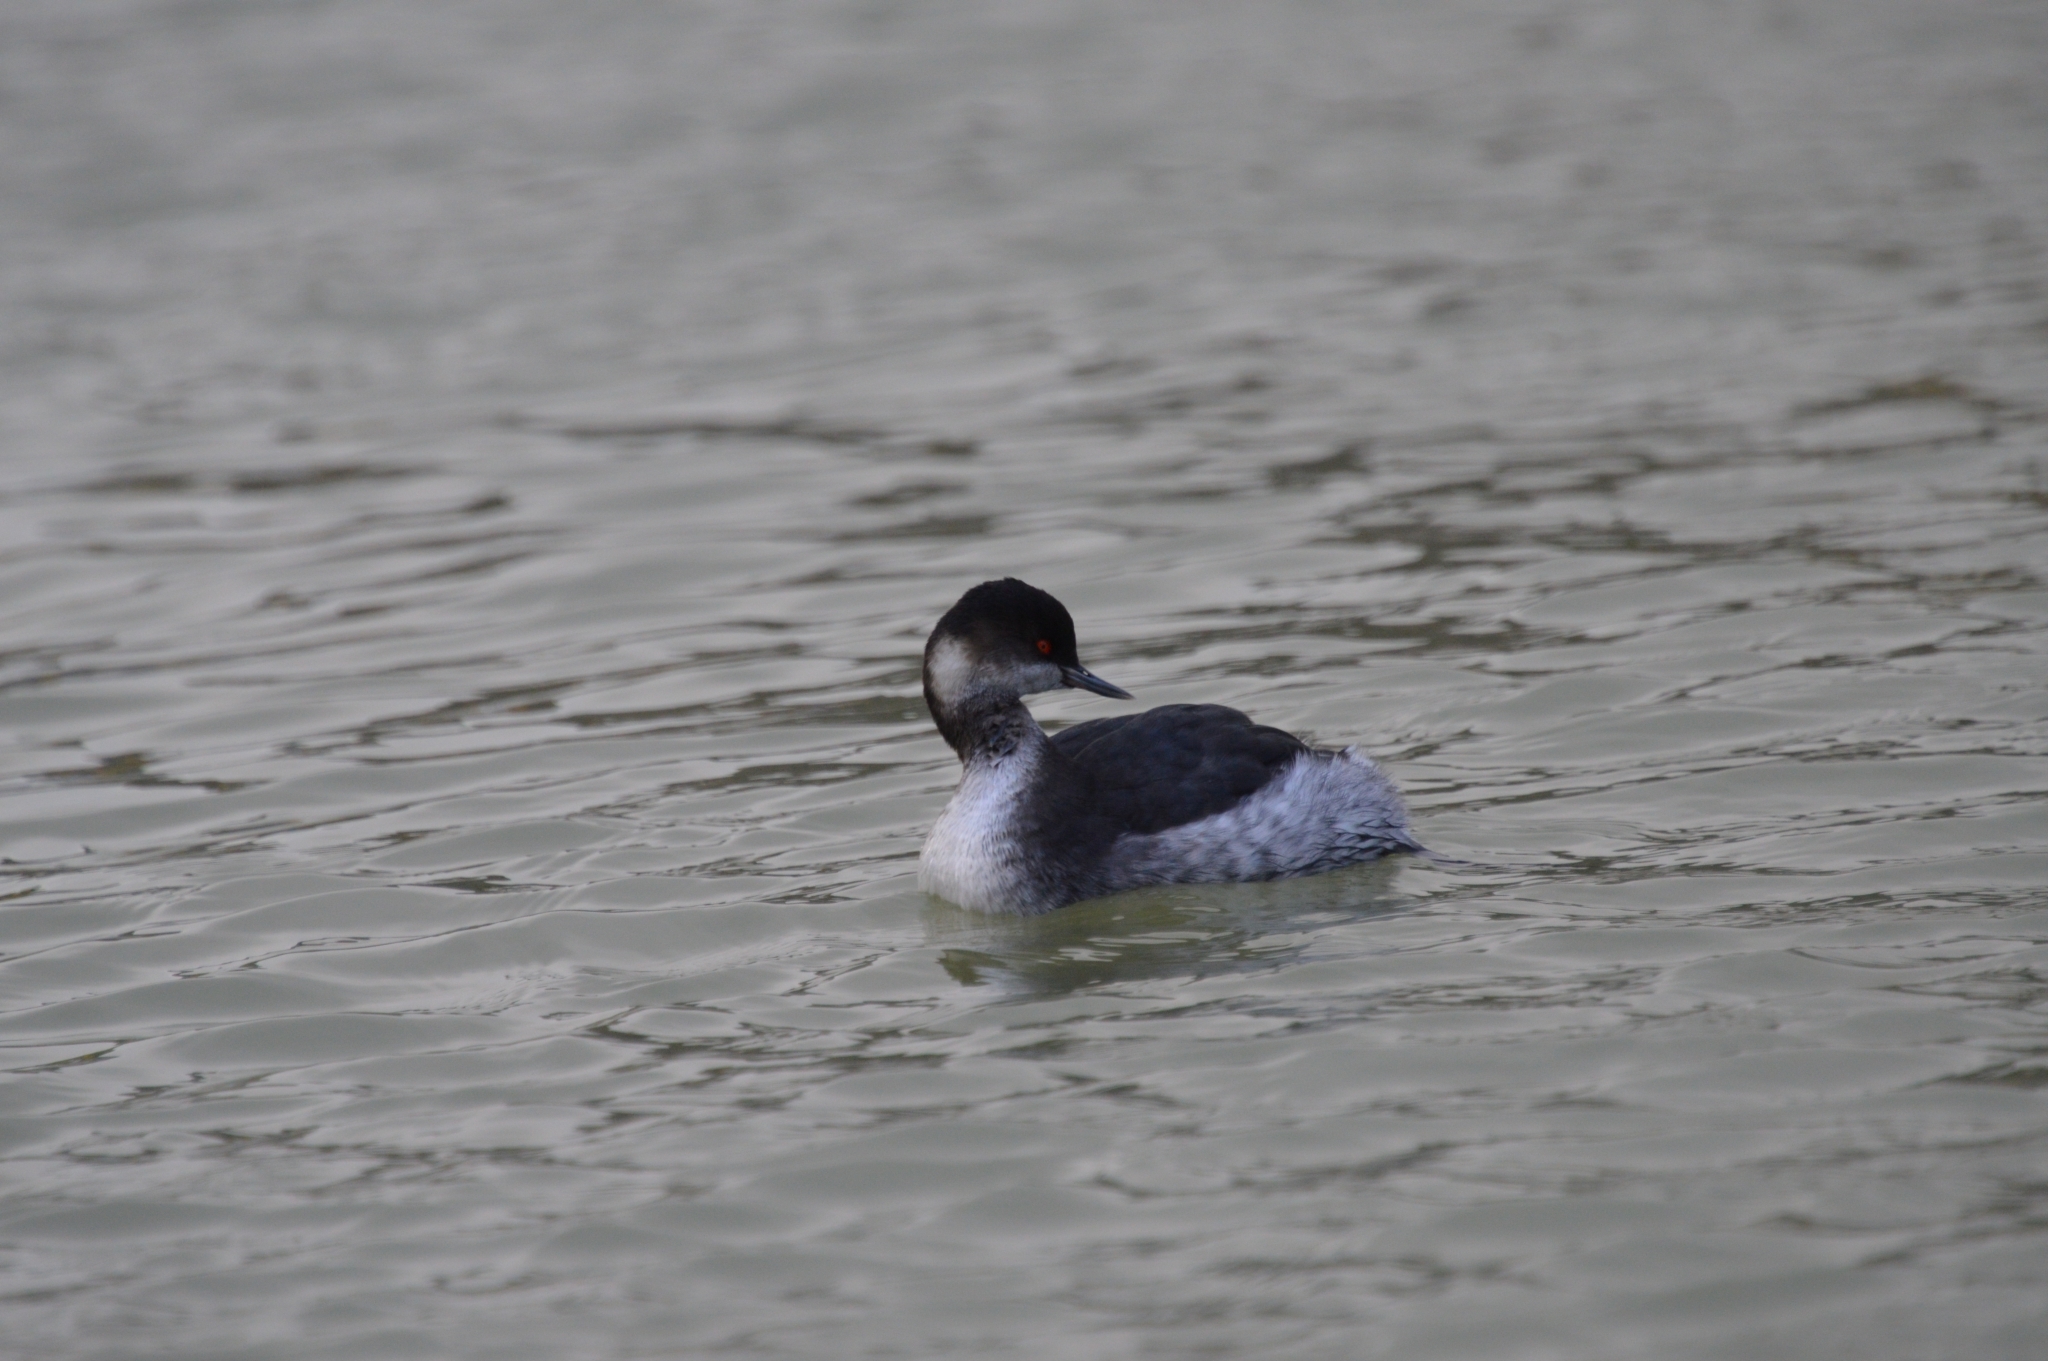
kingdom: Animalia
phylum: Chordata
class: Aves
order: Podicipediformes
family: Podicipedidae
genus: Podiceps
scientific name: Podiceps nigricollis
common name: Black-necked grebe
